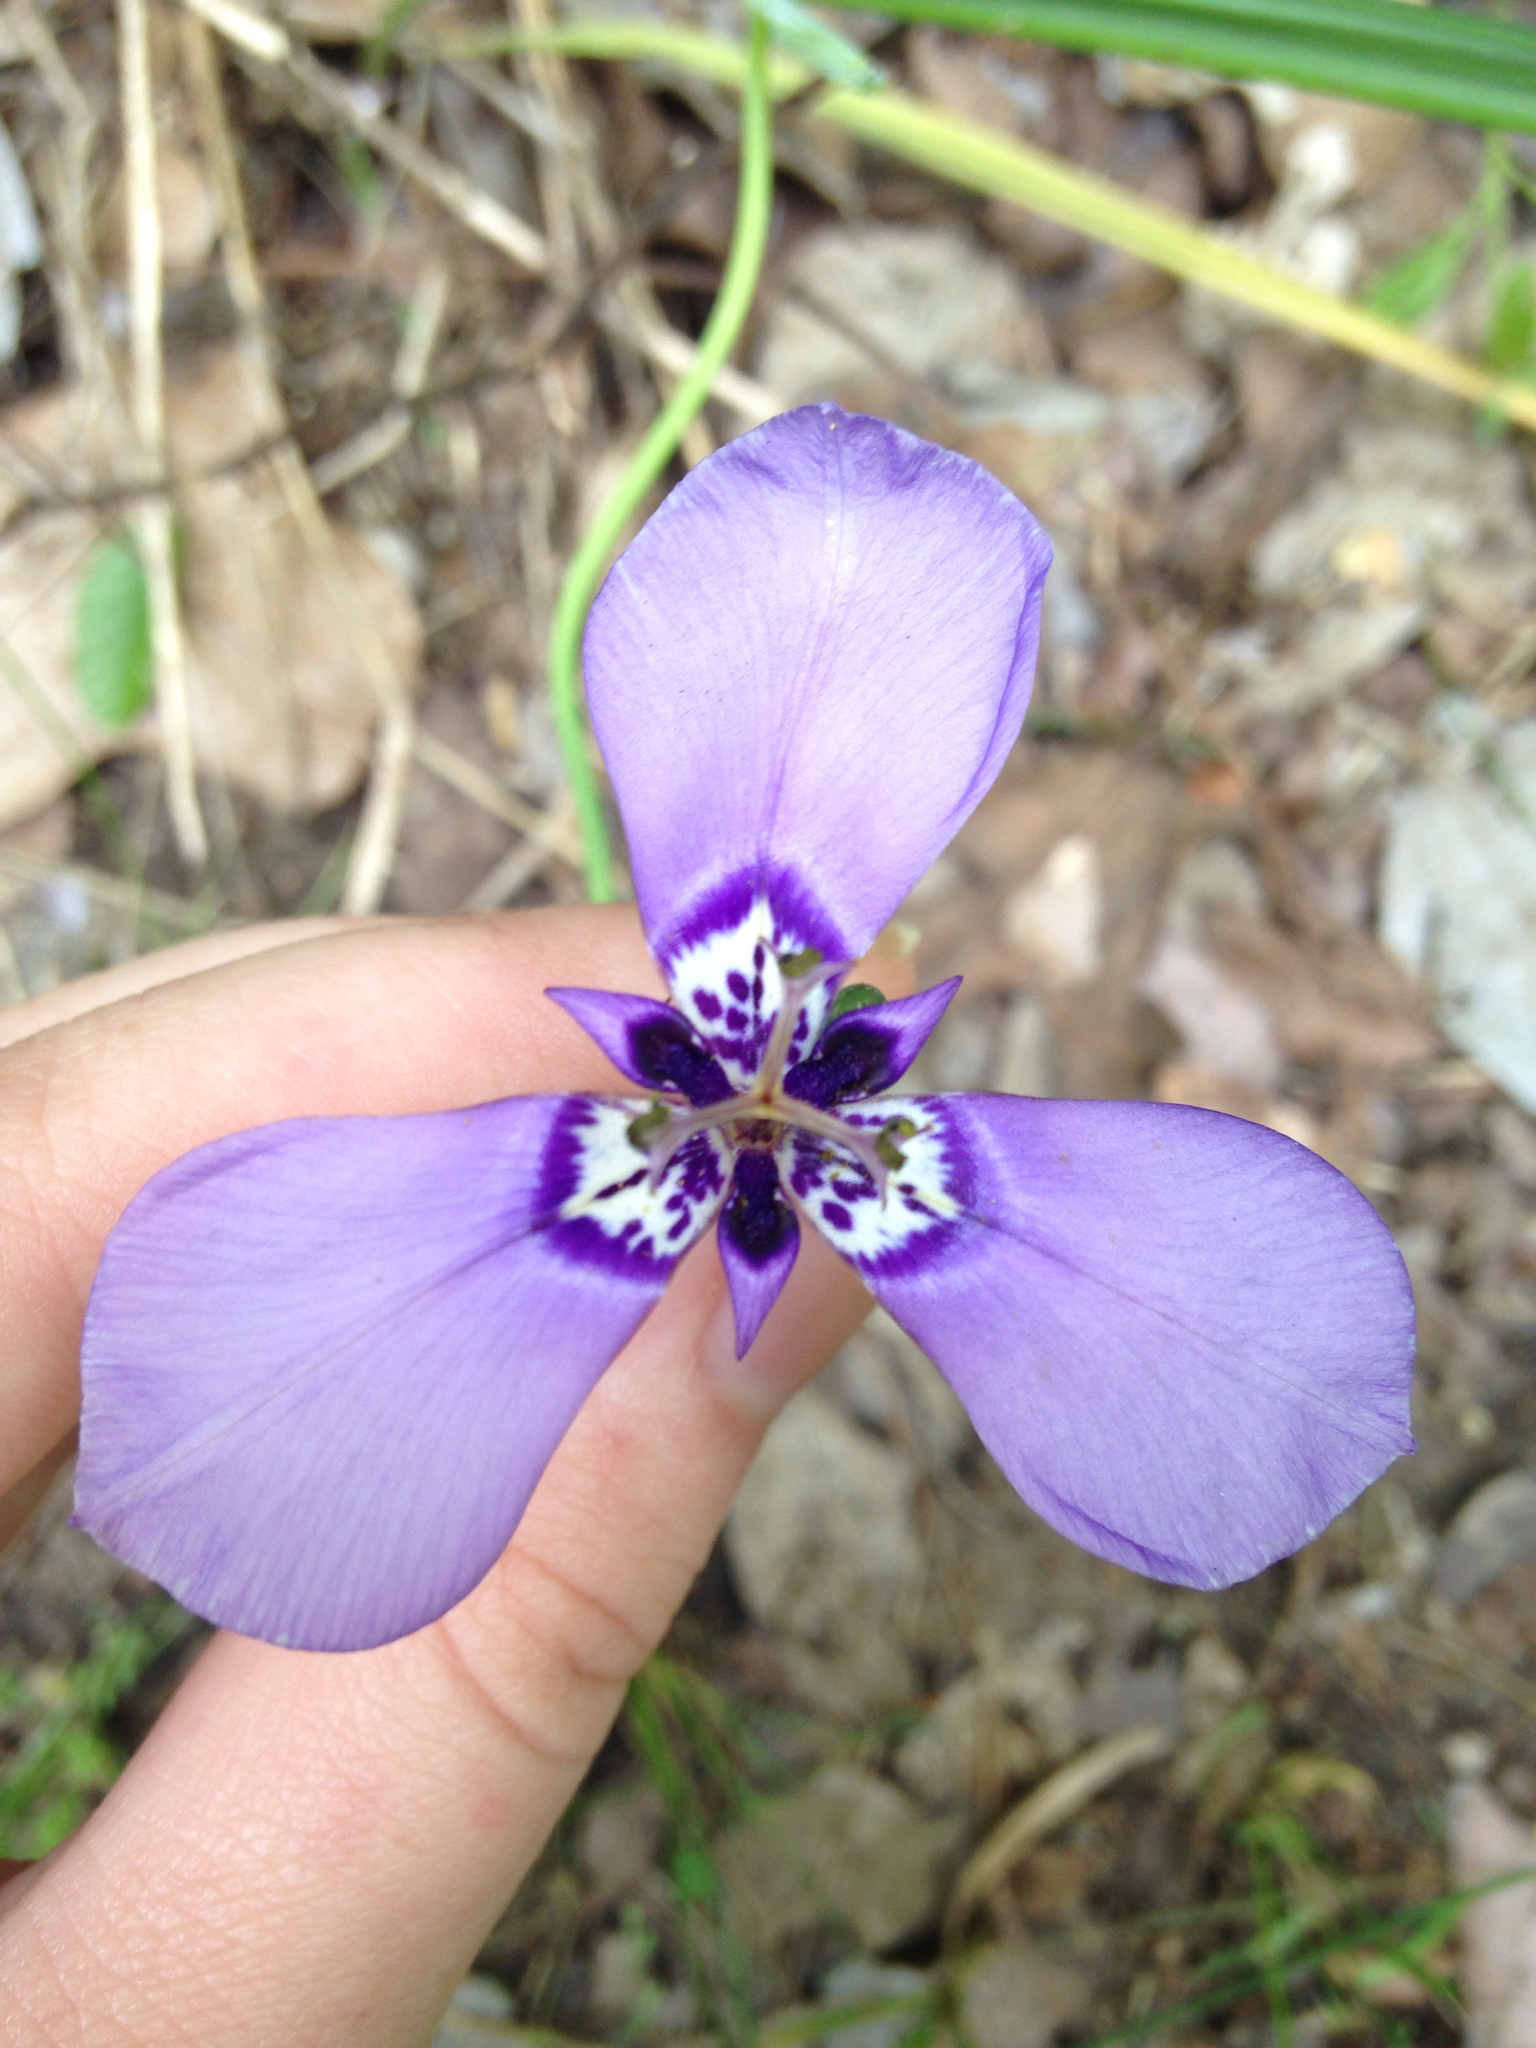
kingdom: Plantae
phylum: Tracheophyta
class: Liliopsida
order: Asparagales
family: Iridaceae
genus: Herbertia
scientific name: Herbertia lahue
